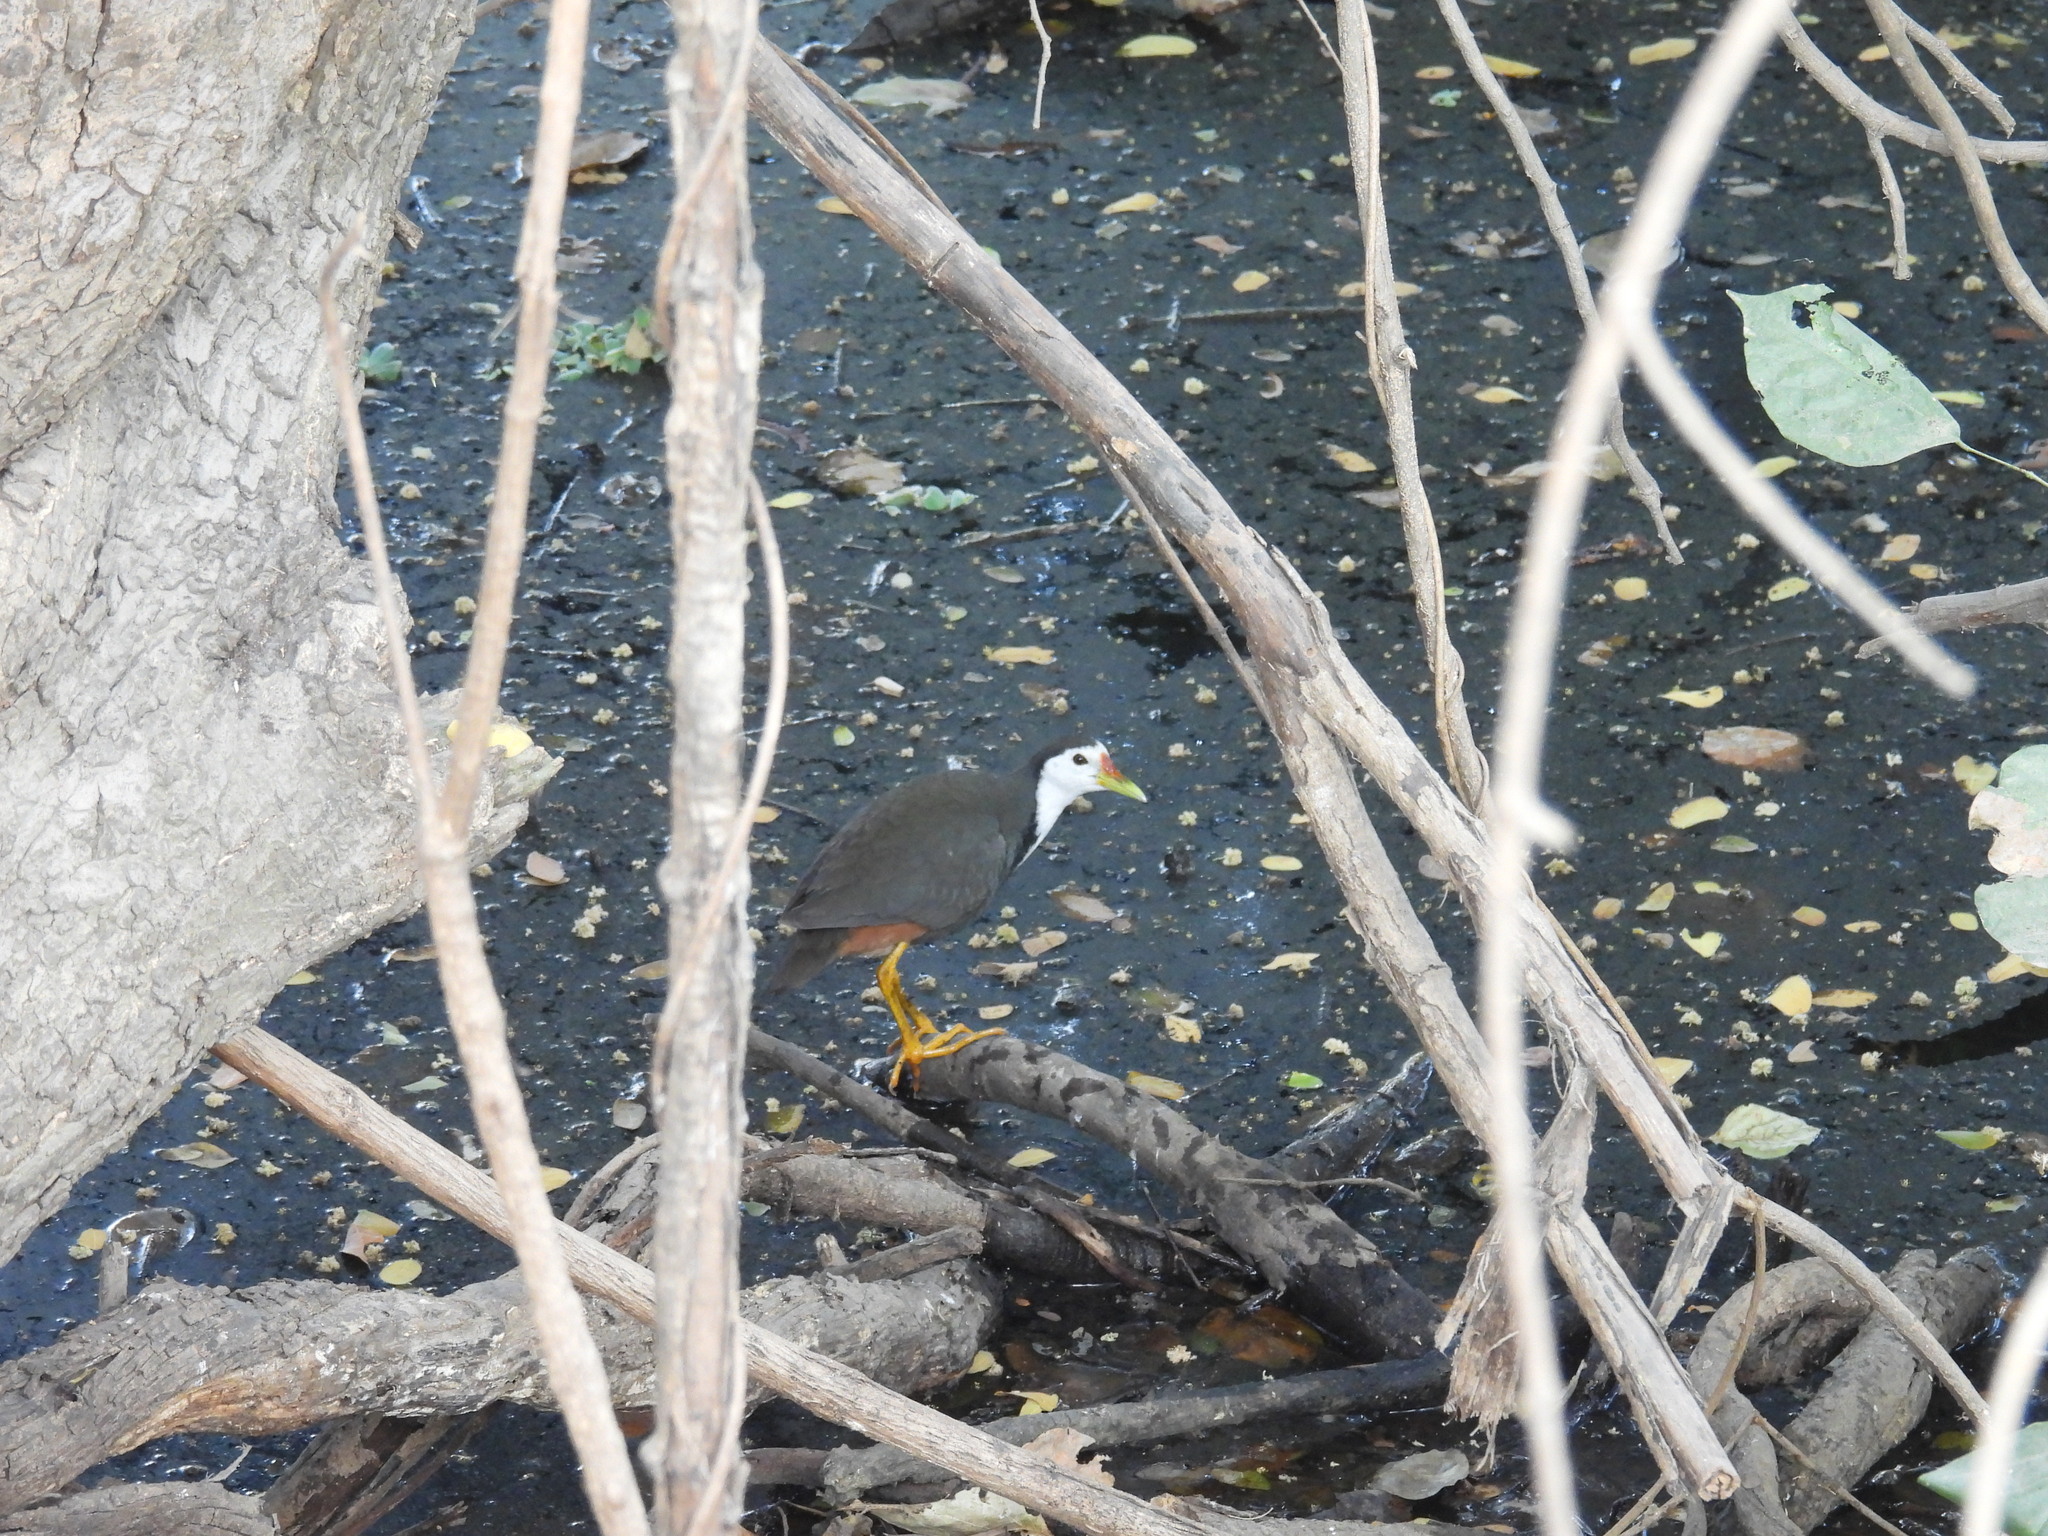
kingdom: Animalia
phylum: Chordata
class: Aves
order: Gruiformes
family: Rallidae
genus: Amaurornis
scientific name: Amaurornis phoenicurus
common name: White-breasted waterhen
